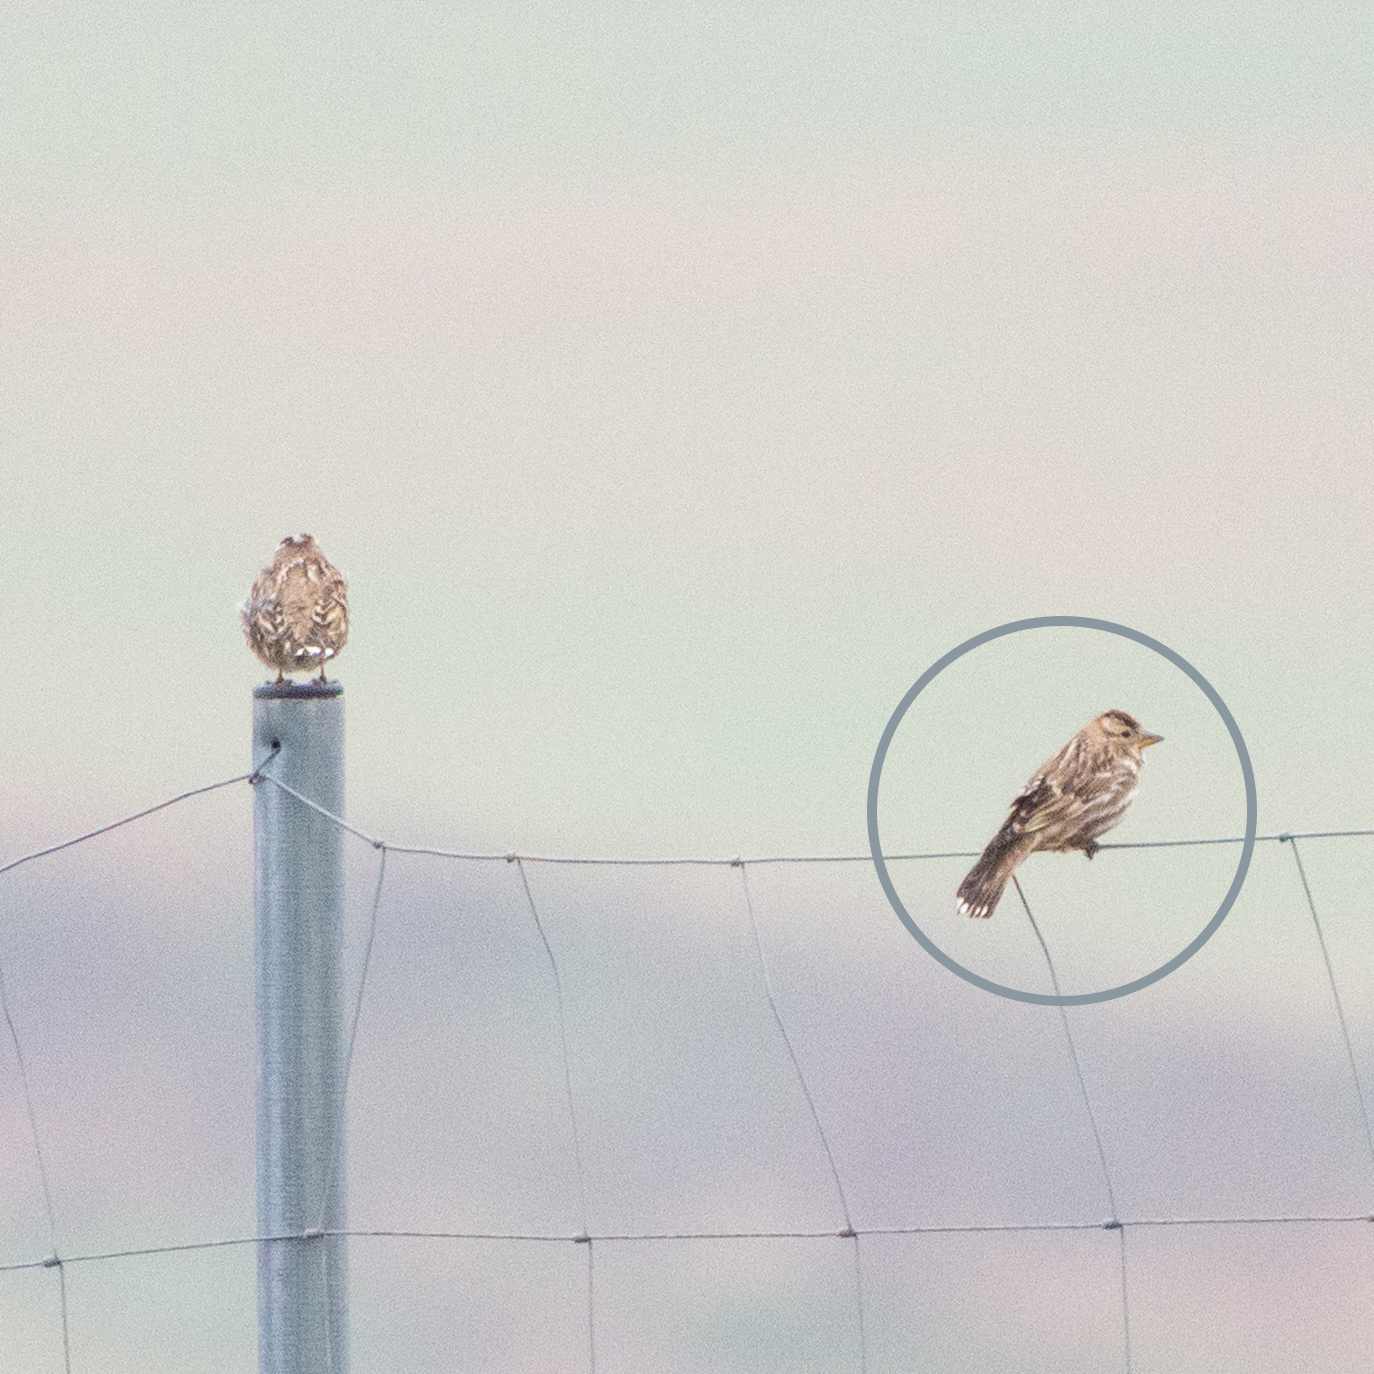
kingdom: Animalia
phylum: Chordata
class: Aves
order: Passeriformes
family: Passeridae
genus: Petronia
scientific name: Petronia petronia
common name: Rock sparrow
